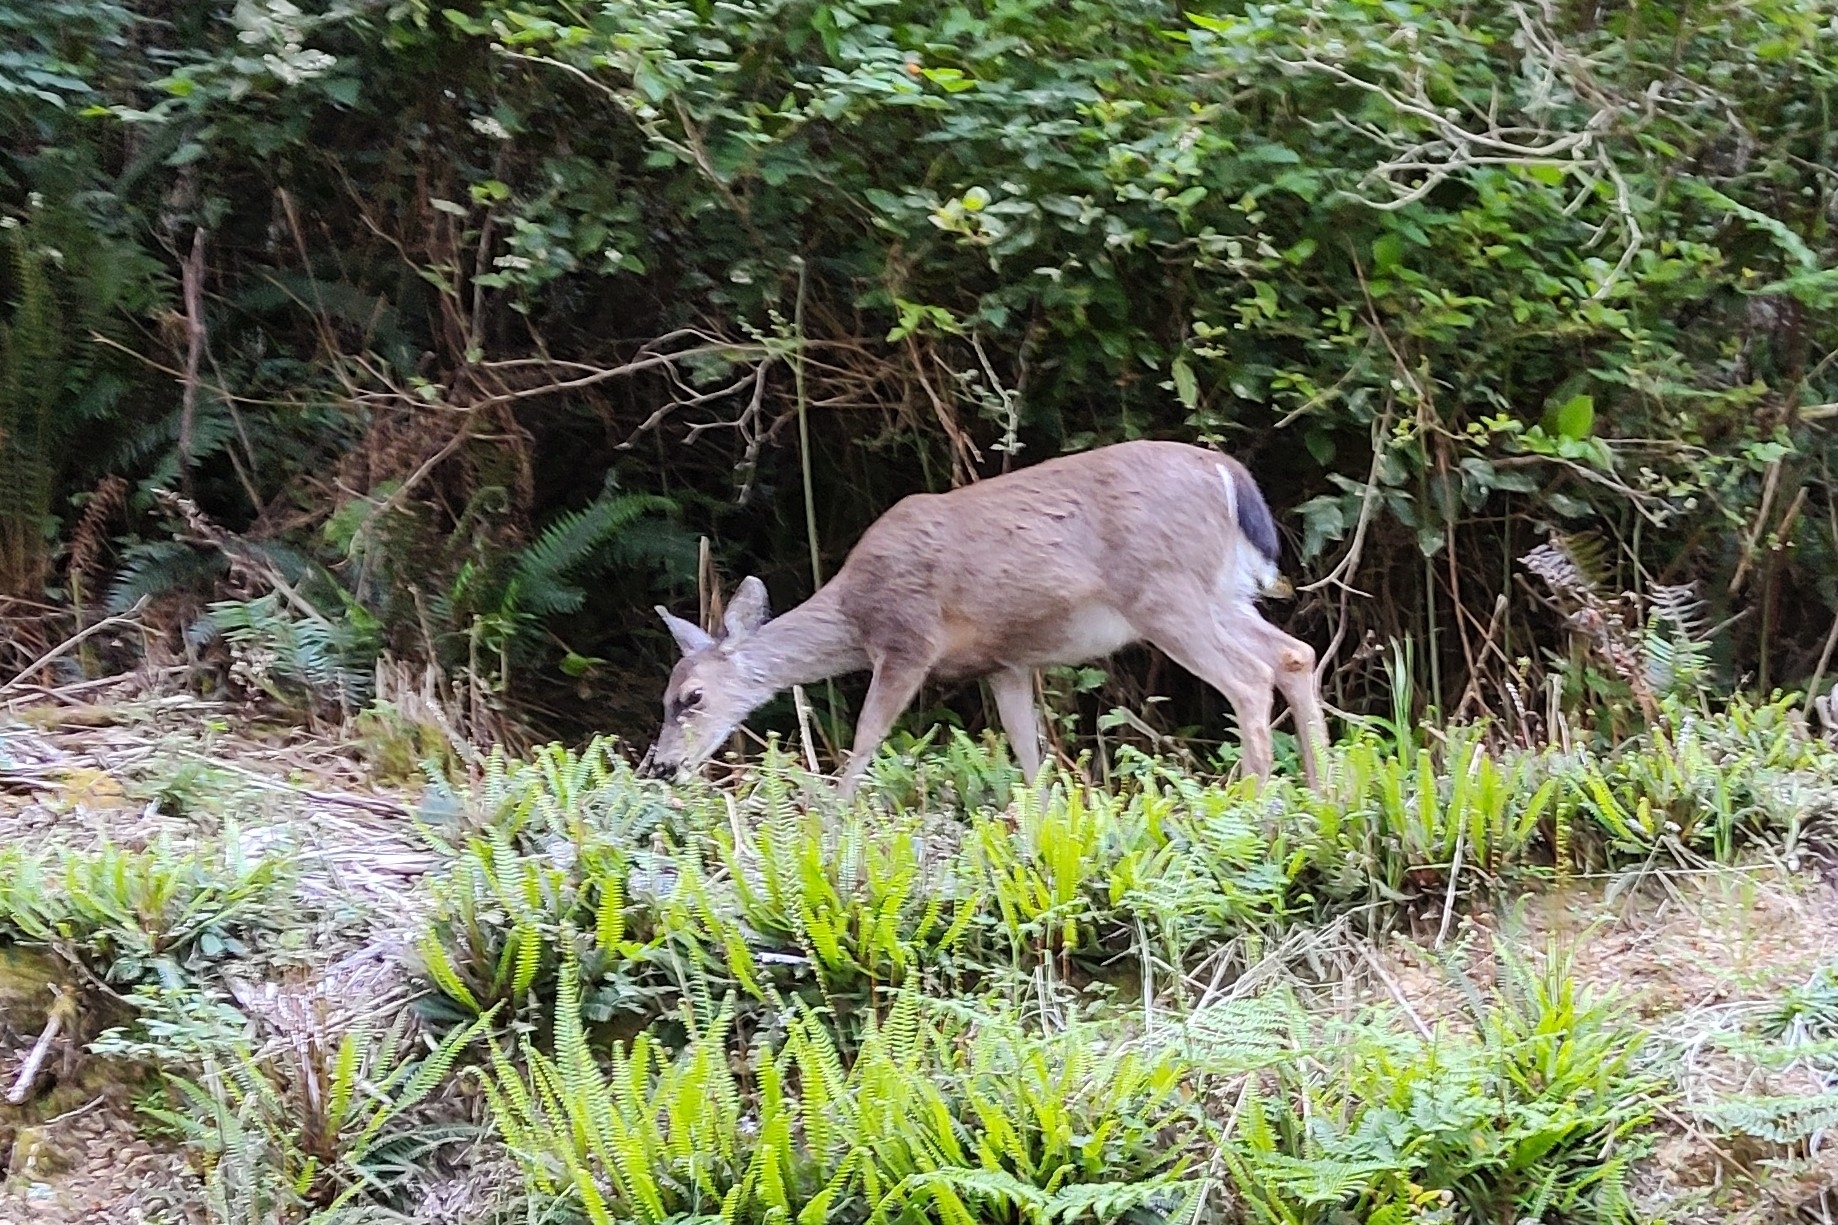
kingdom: Animalia
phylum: Chordata
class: Mammalia
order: Artiodactyla
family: Cervidae
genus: Odocoileus
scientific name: Odocoileus hemionus
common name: Mule deer
